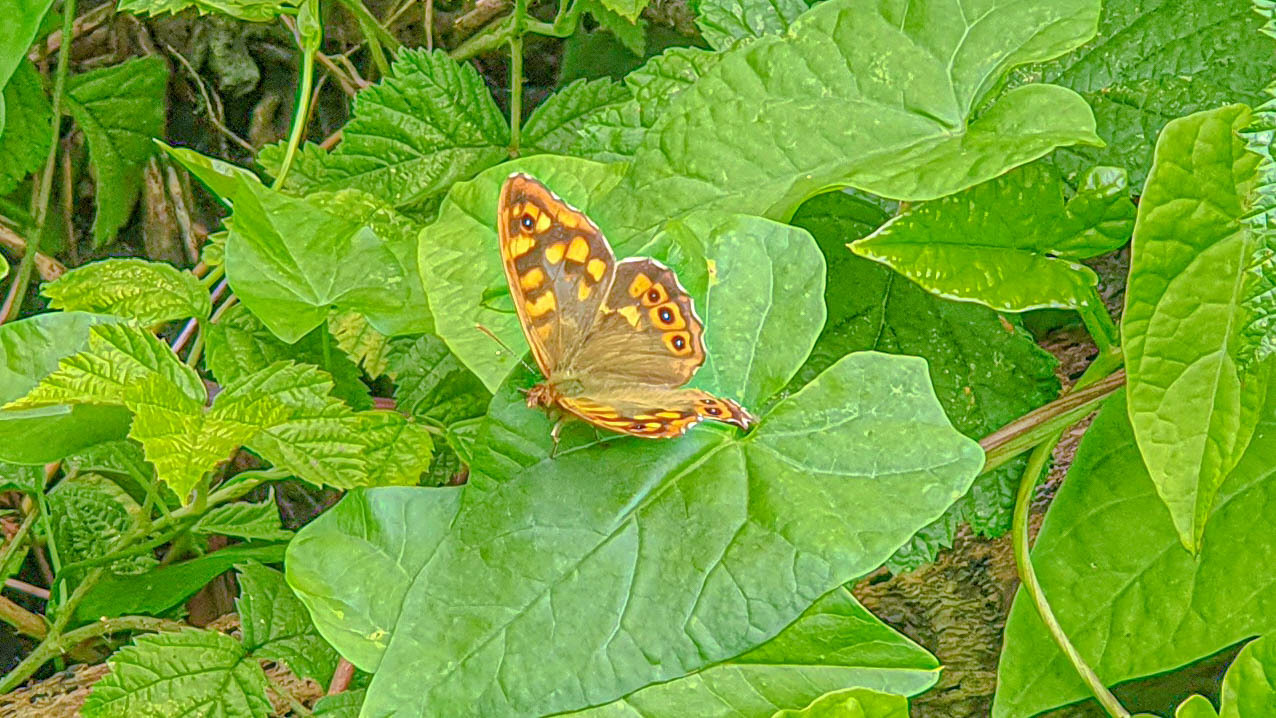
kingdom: Animalia
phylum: Arthropoda
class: Insecta
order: Lepidoptera
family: Nymphalidae
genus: Pararge
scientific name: Pararge aegeria
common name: Speckled wood
